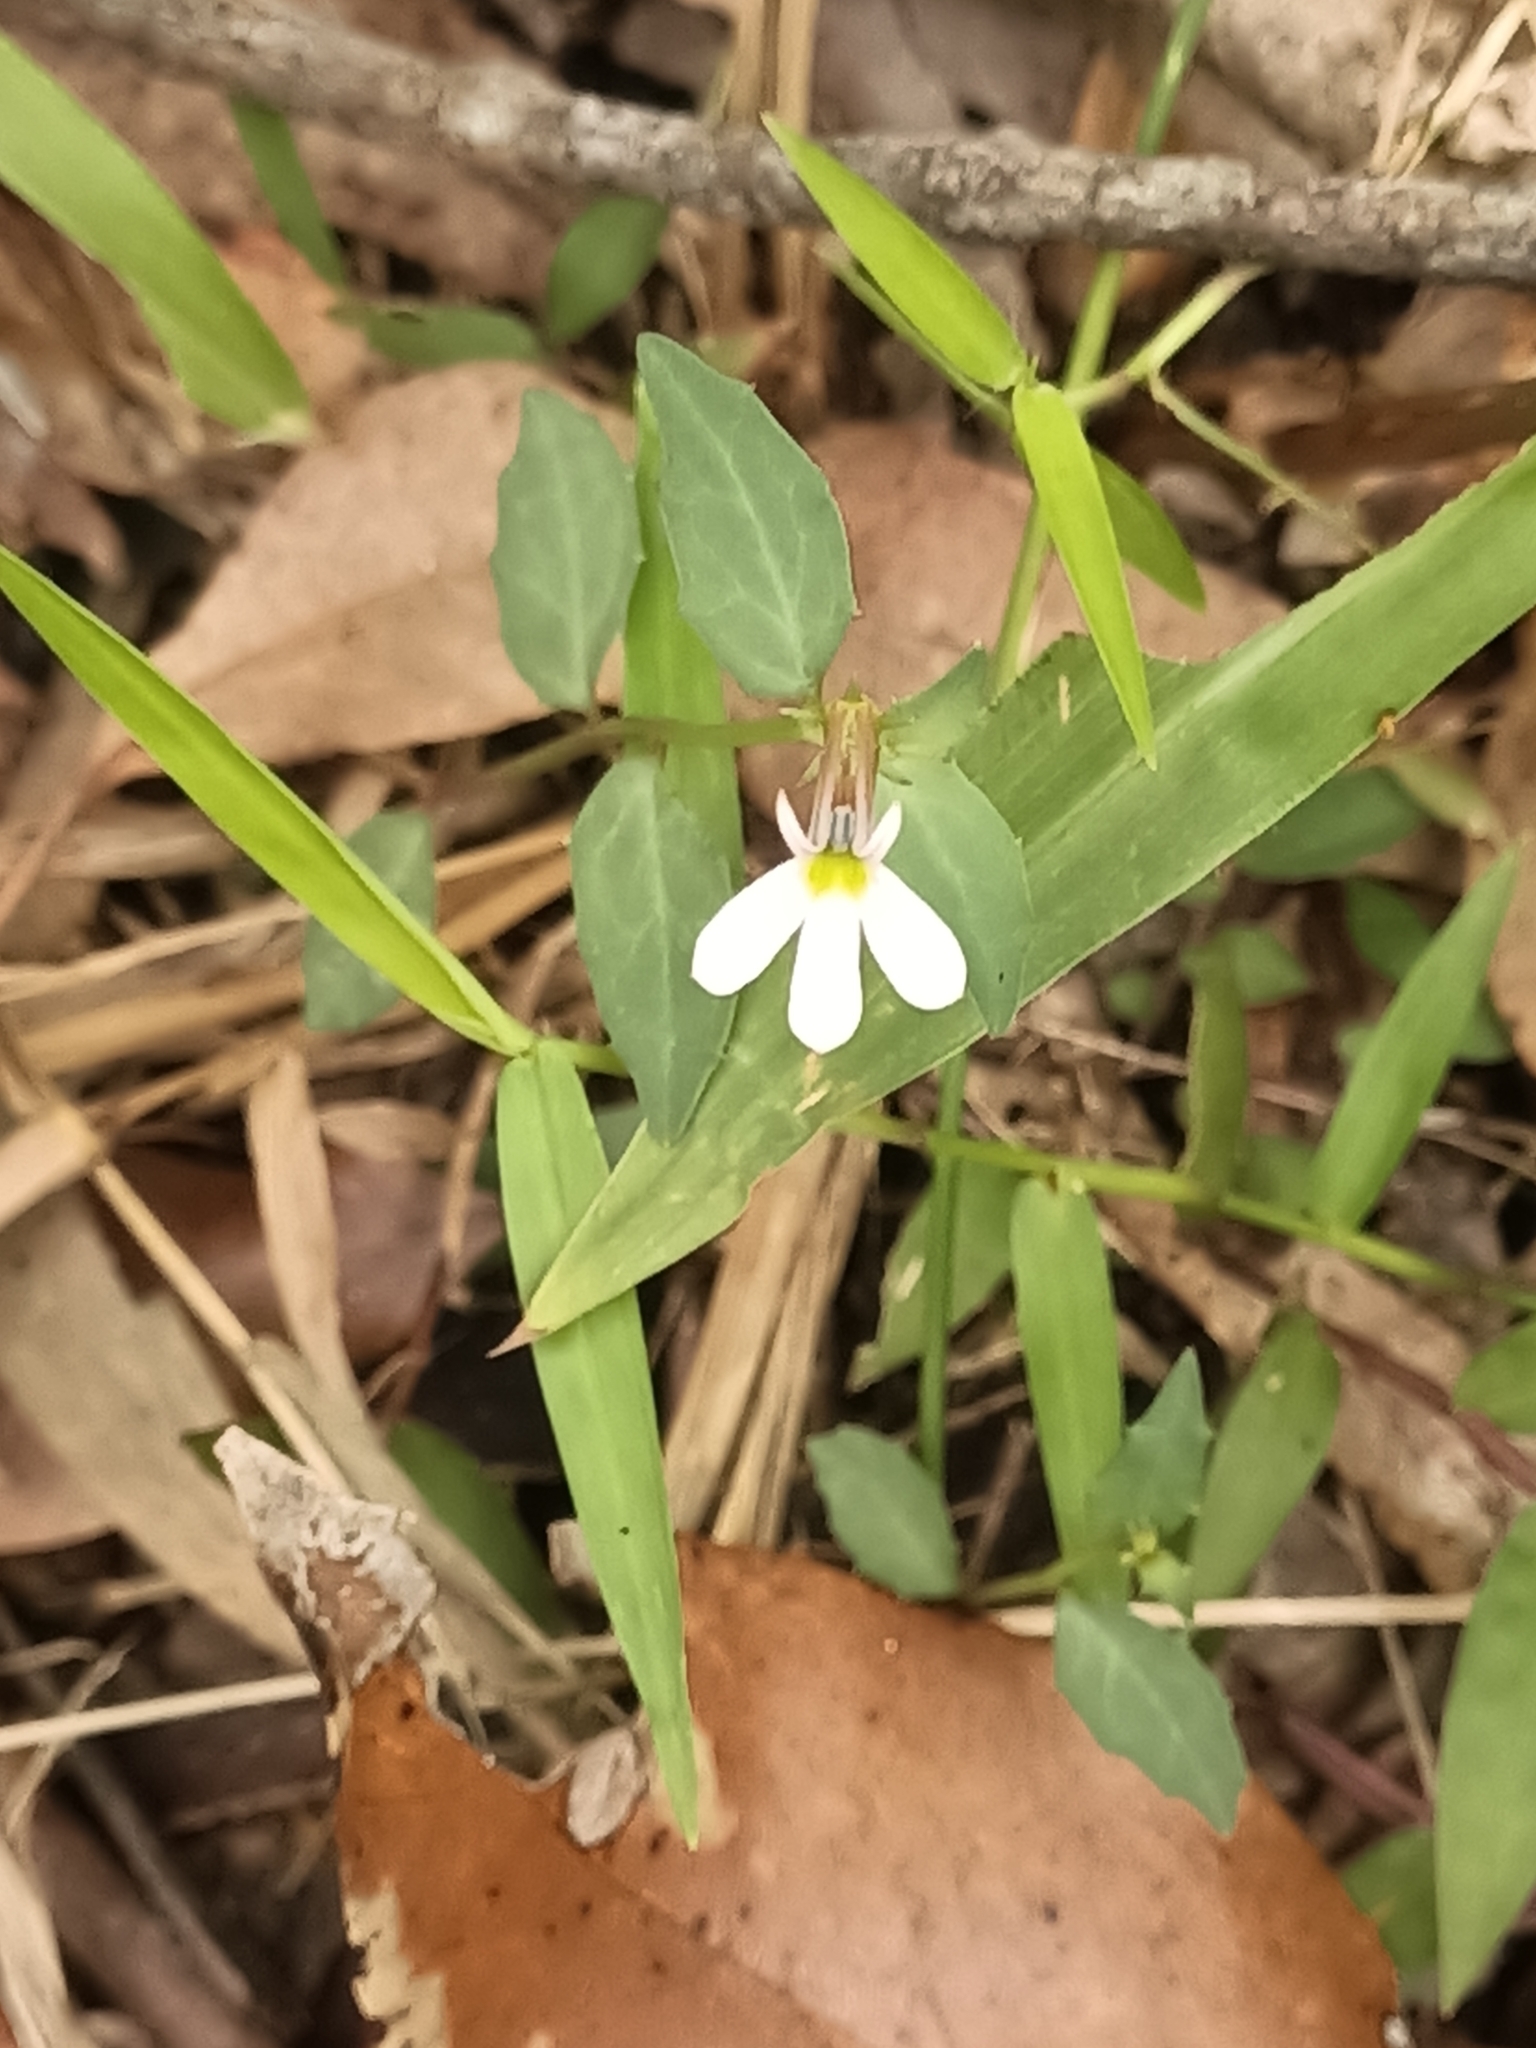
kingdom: Plantae
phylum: Tracheophyta
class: Magnoliopsida
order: Asterales
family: Campanulaceae
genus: Lobelia
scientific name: Lobelia purpurascens
